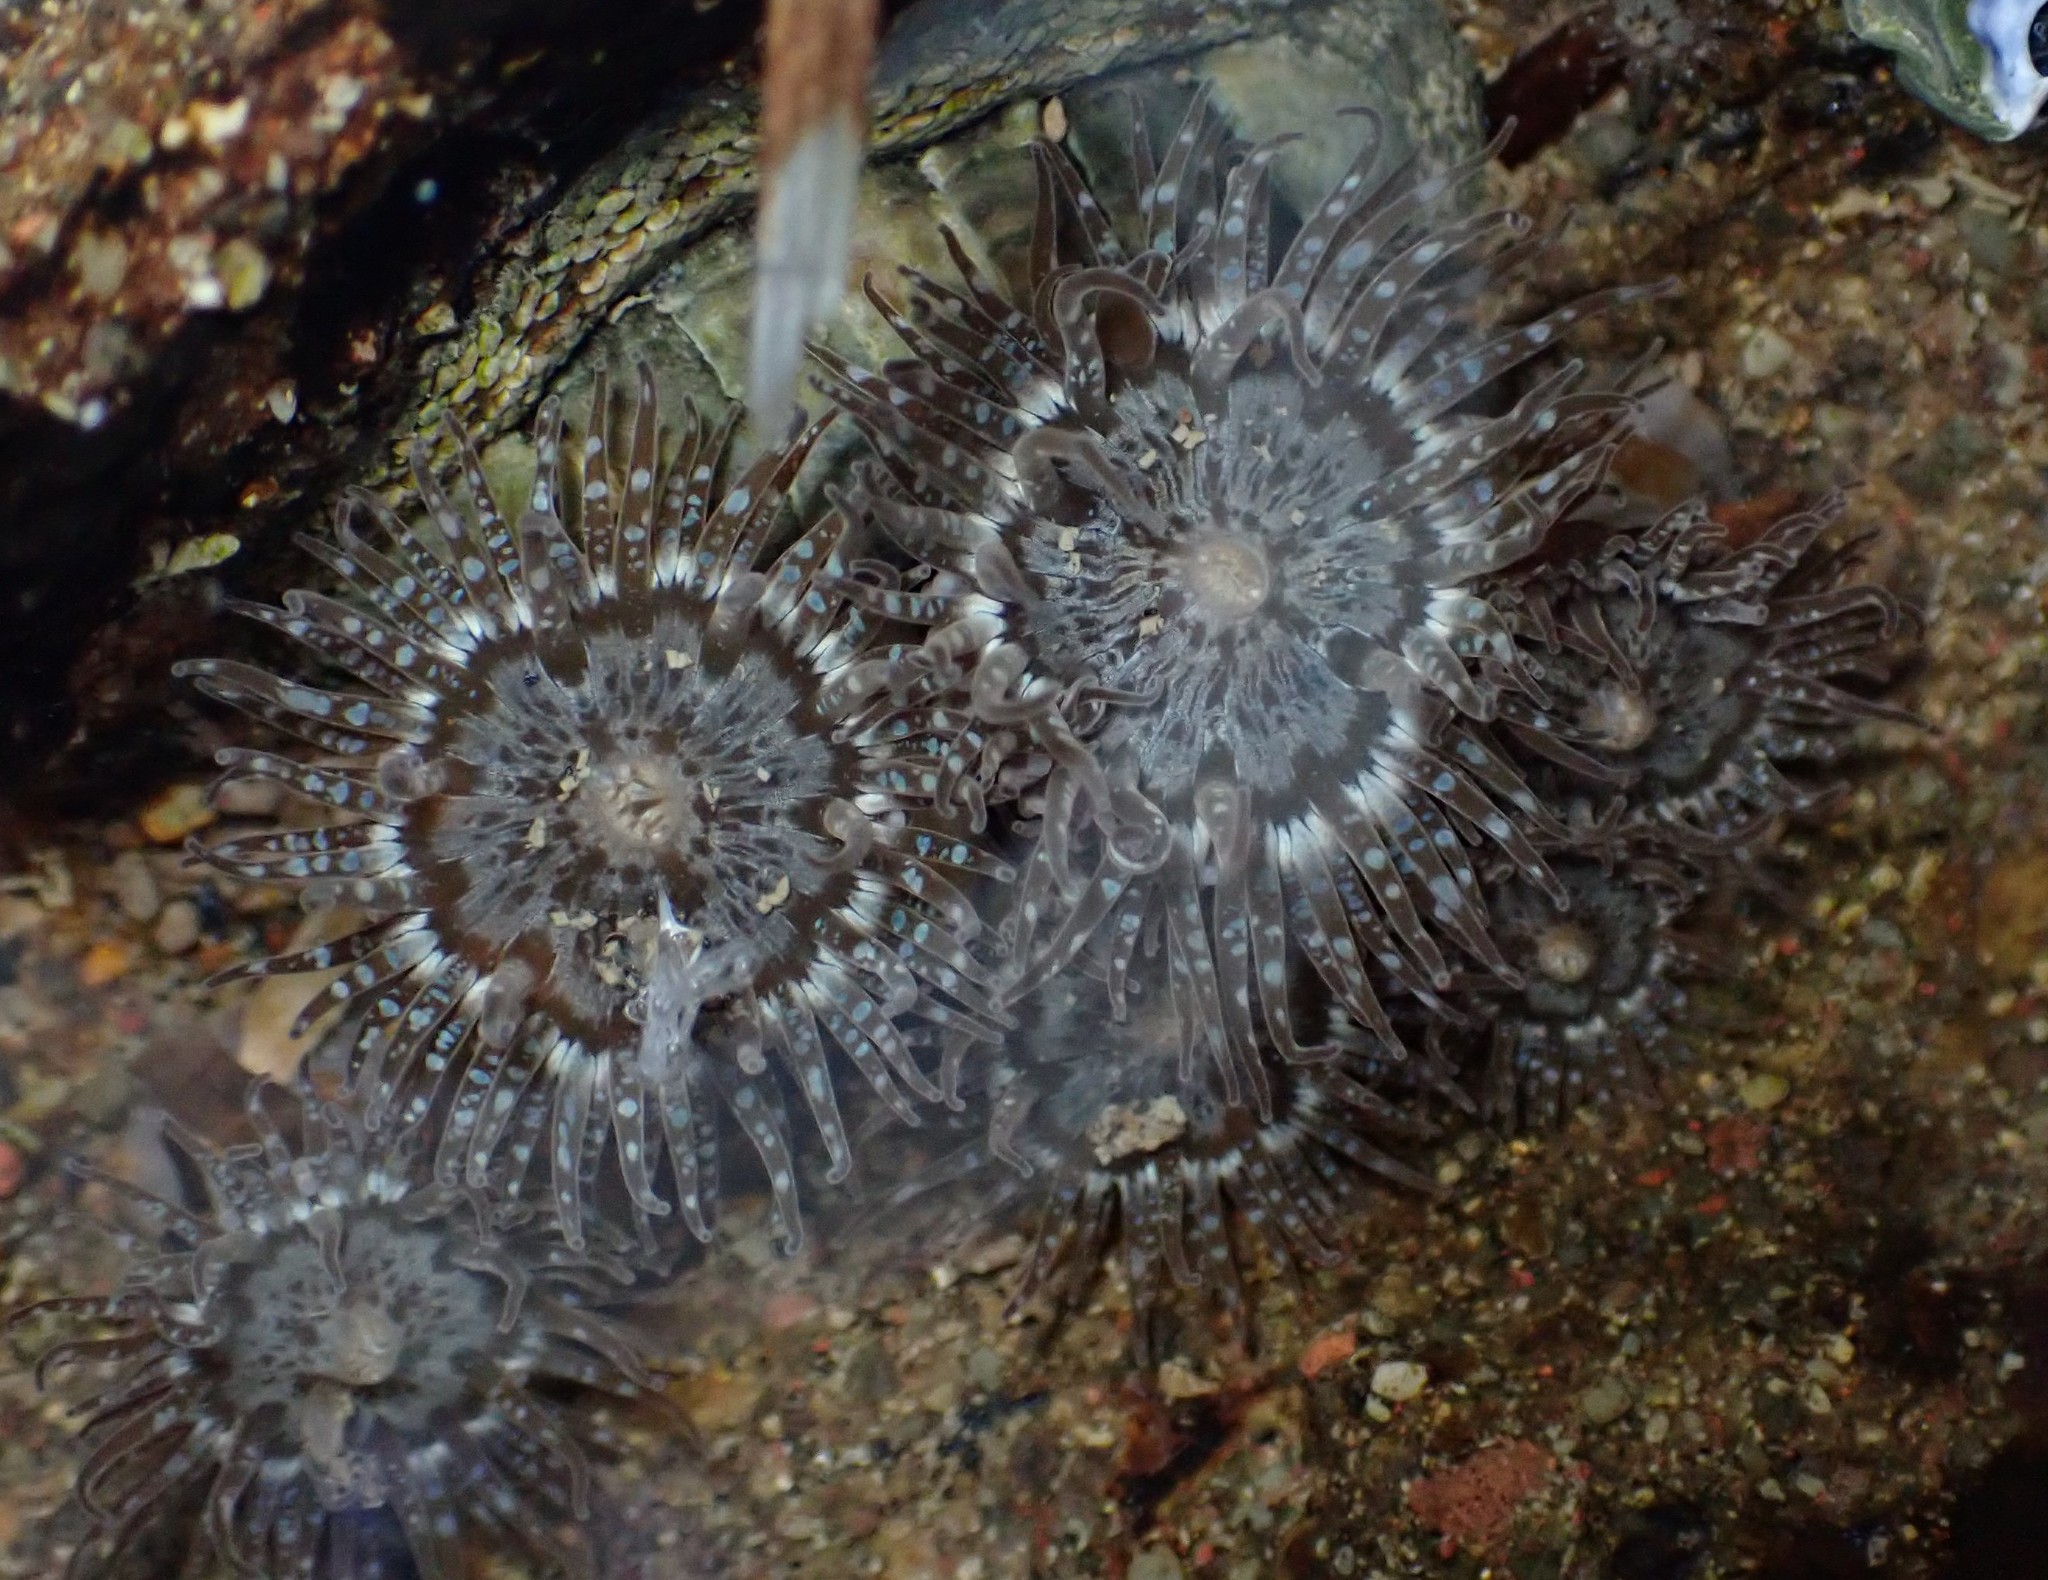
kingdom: Animalia
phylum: Cnidaria
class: Anthozoa
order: Actiniaria
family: Actiniidae
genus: Anthopleura
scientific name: Anthopleura hermaphroditica
